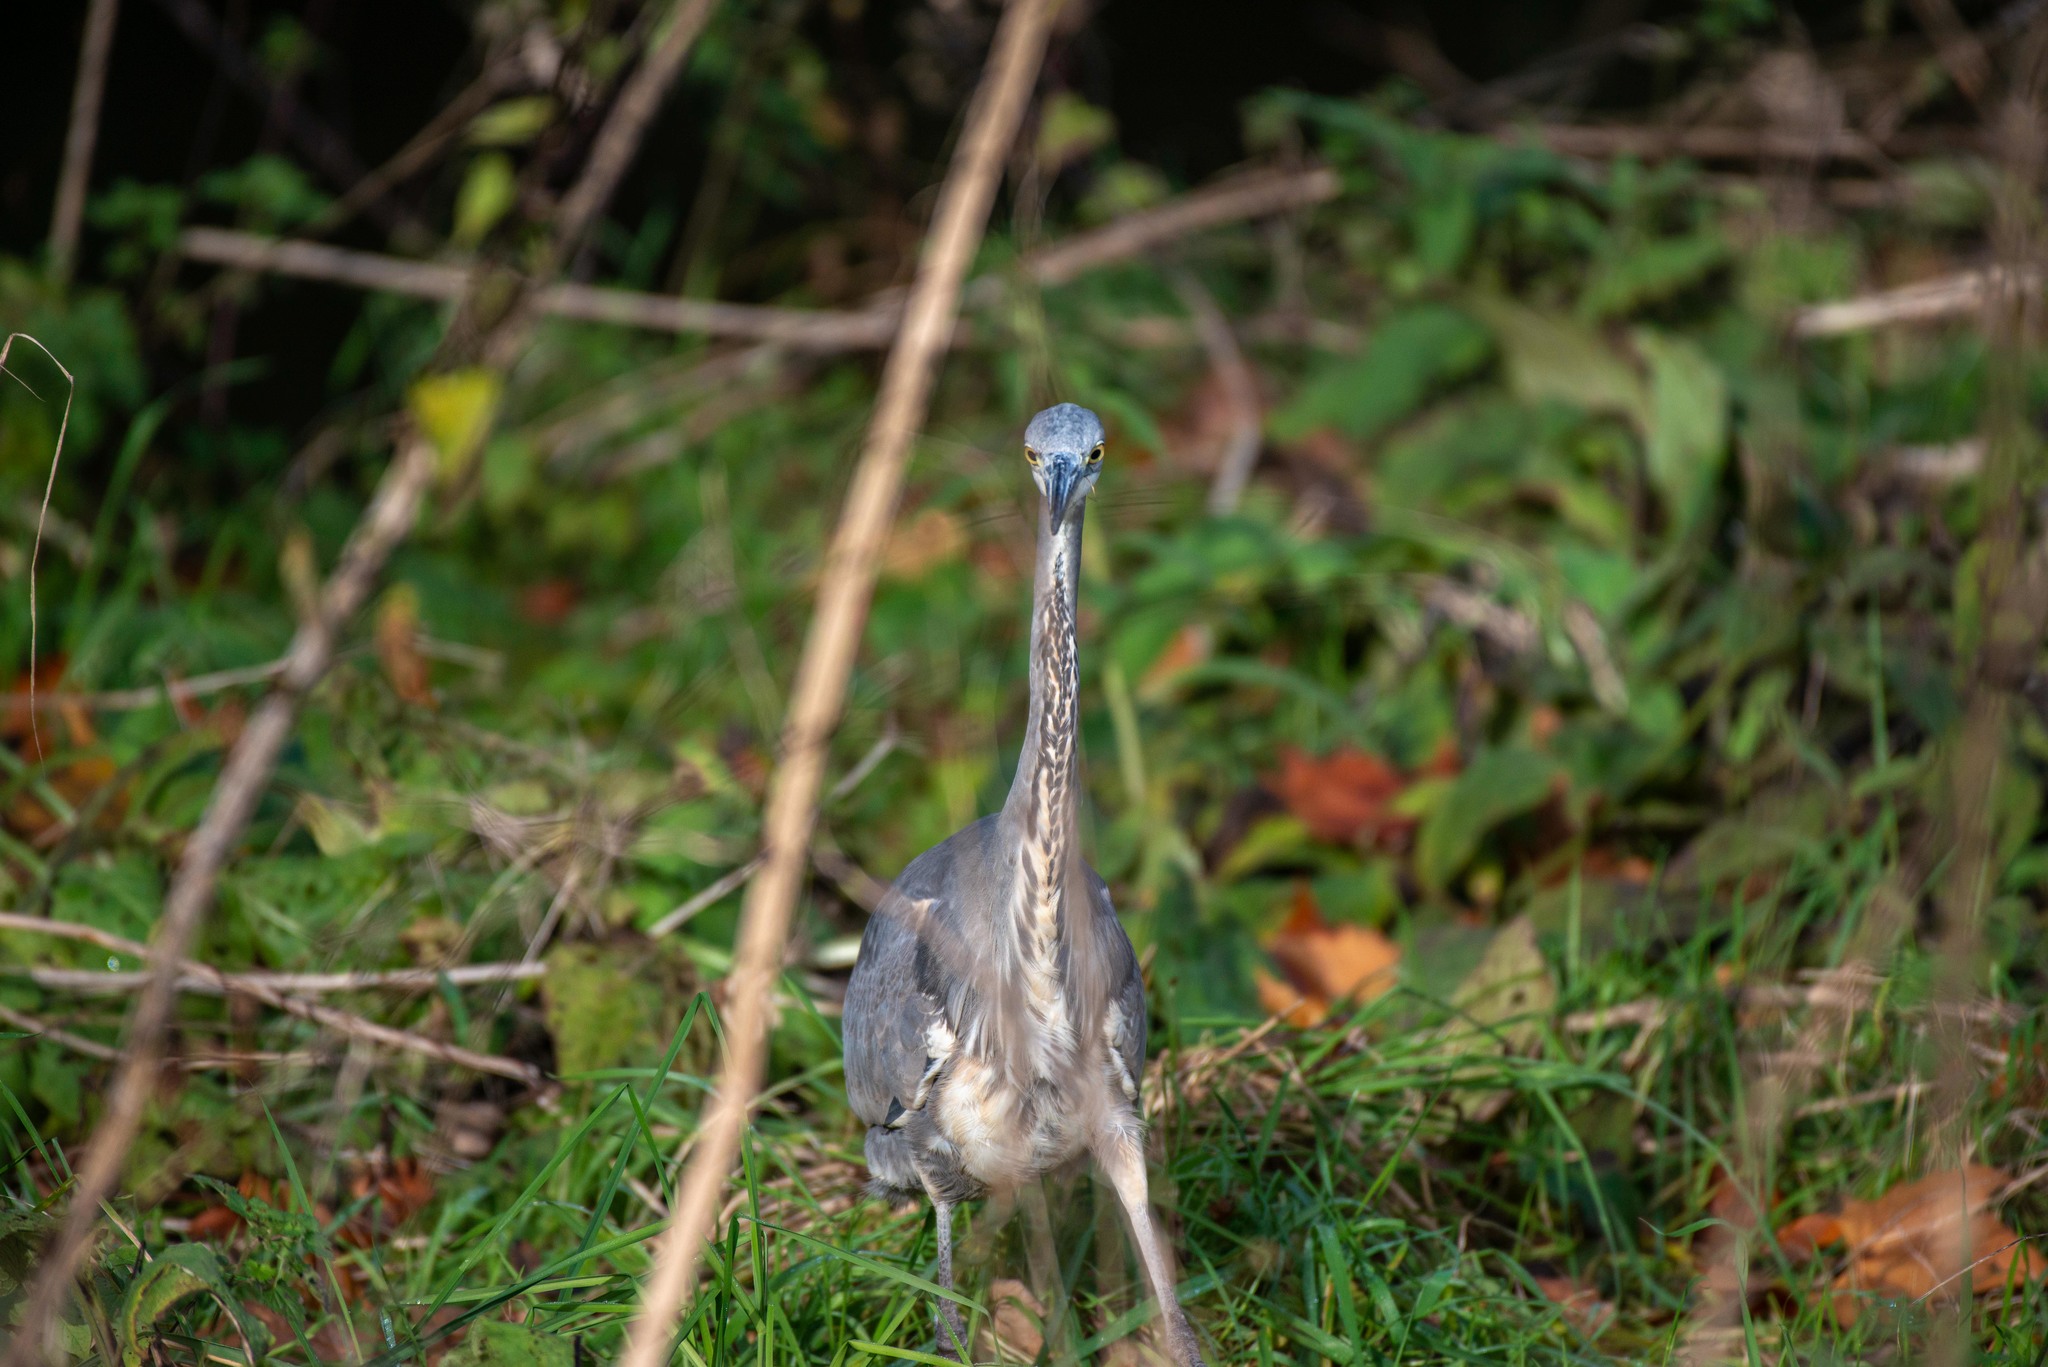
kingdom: Animalia
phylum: Chordata
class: Aves
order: Pelecaniformes
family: Ardeidae
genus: Ardea
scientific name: Ardea cinerea
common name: Grey heron
